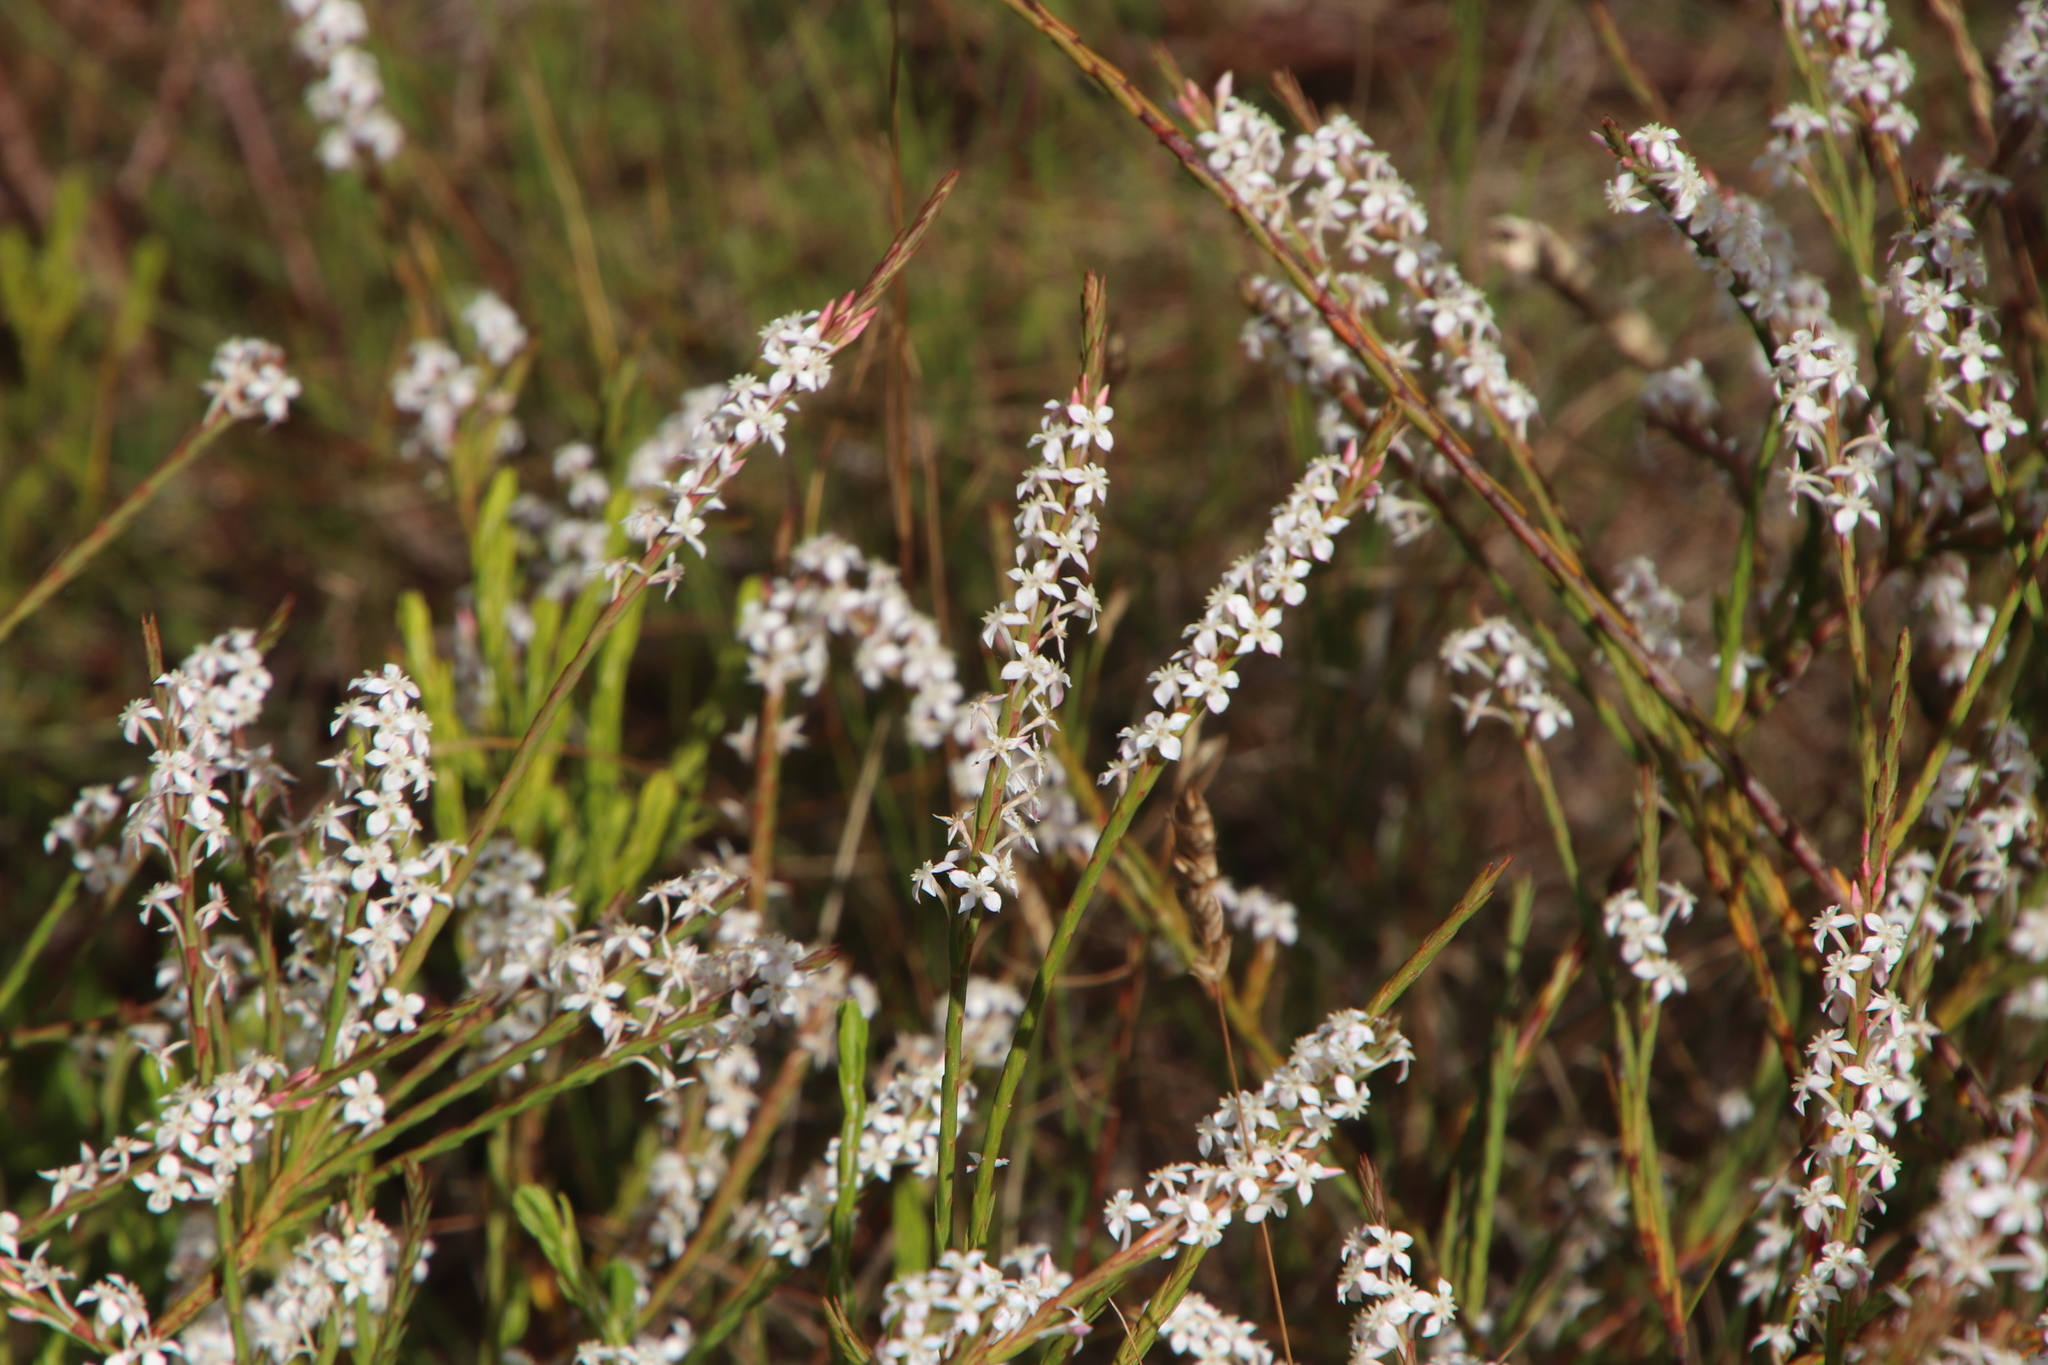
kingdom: Plantae
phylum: Tracheophyta
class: Magnoliopsida
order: Malvales
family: Thymelaeaceae
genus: Struthiola
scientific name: Struthiola dodecandra
